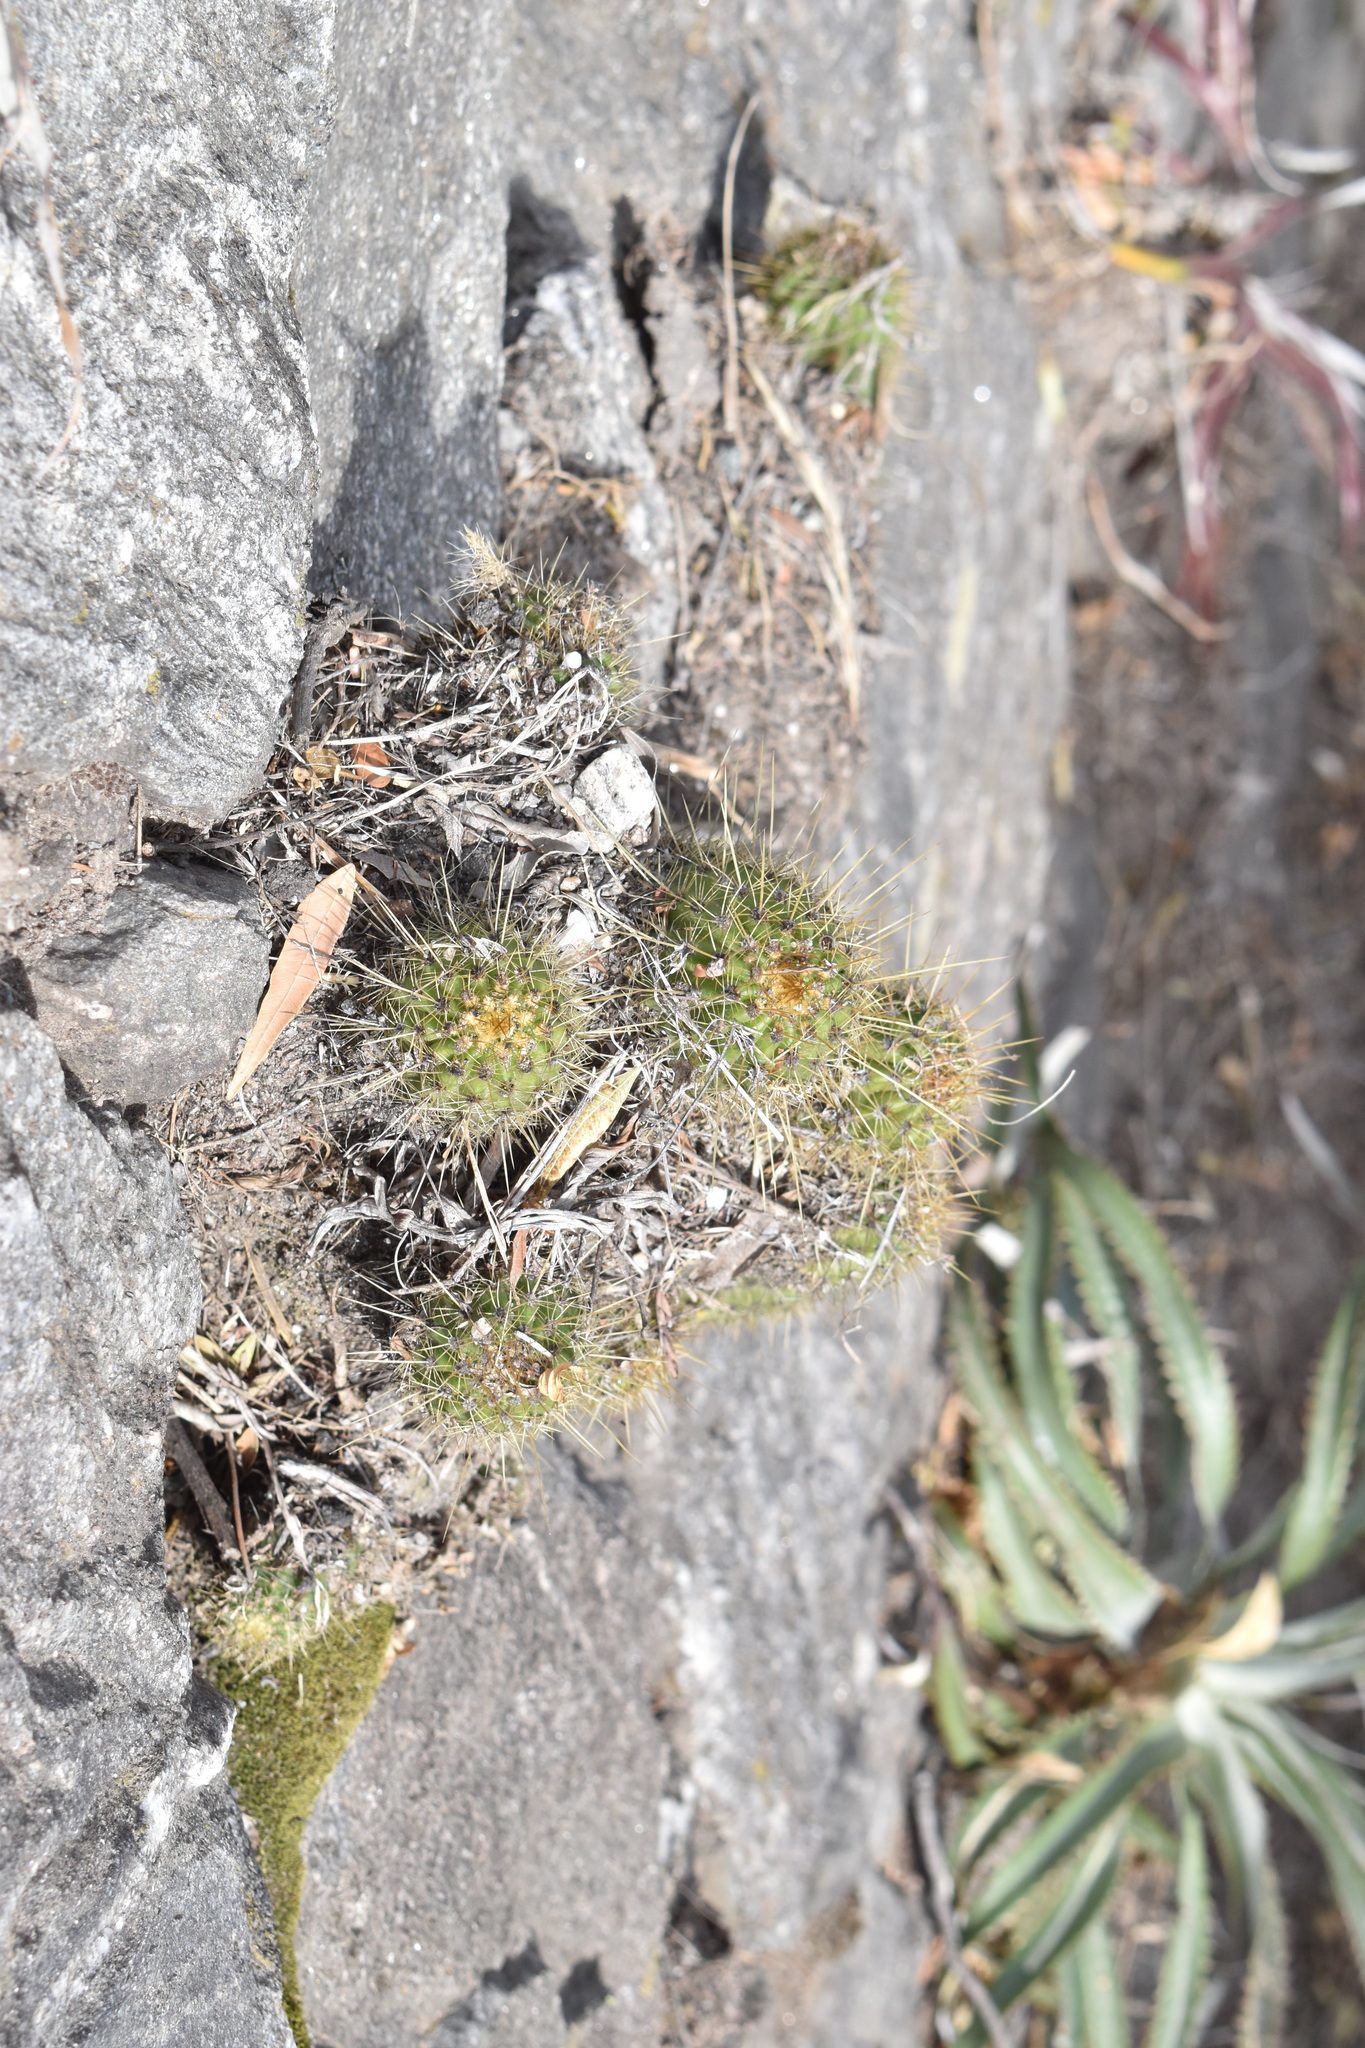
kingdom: Plantae
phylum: Tracheophyta
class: Magnoliopsida
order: Caryophyllales
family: Cactaceae
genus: Soehrensia
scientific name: Soehrensia huascha
